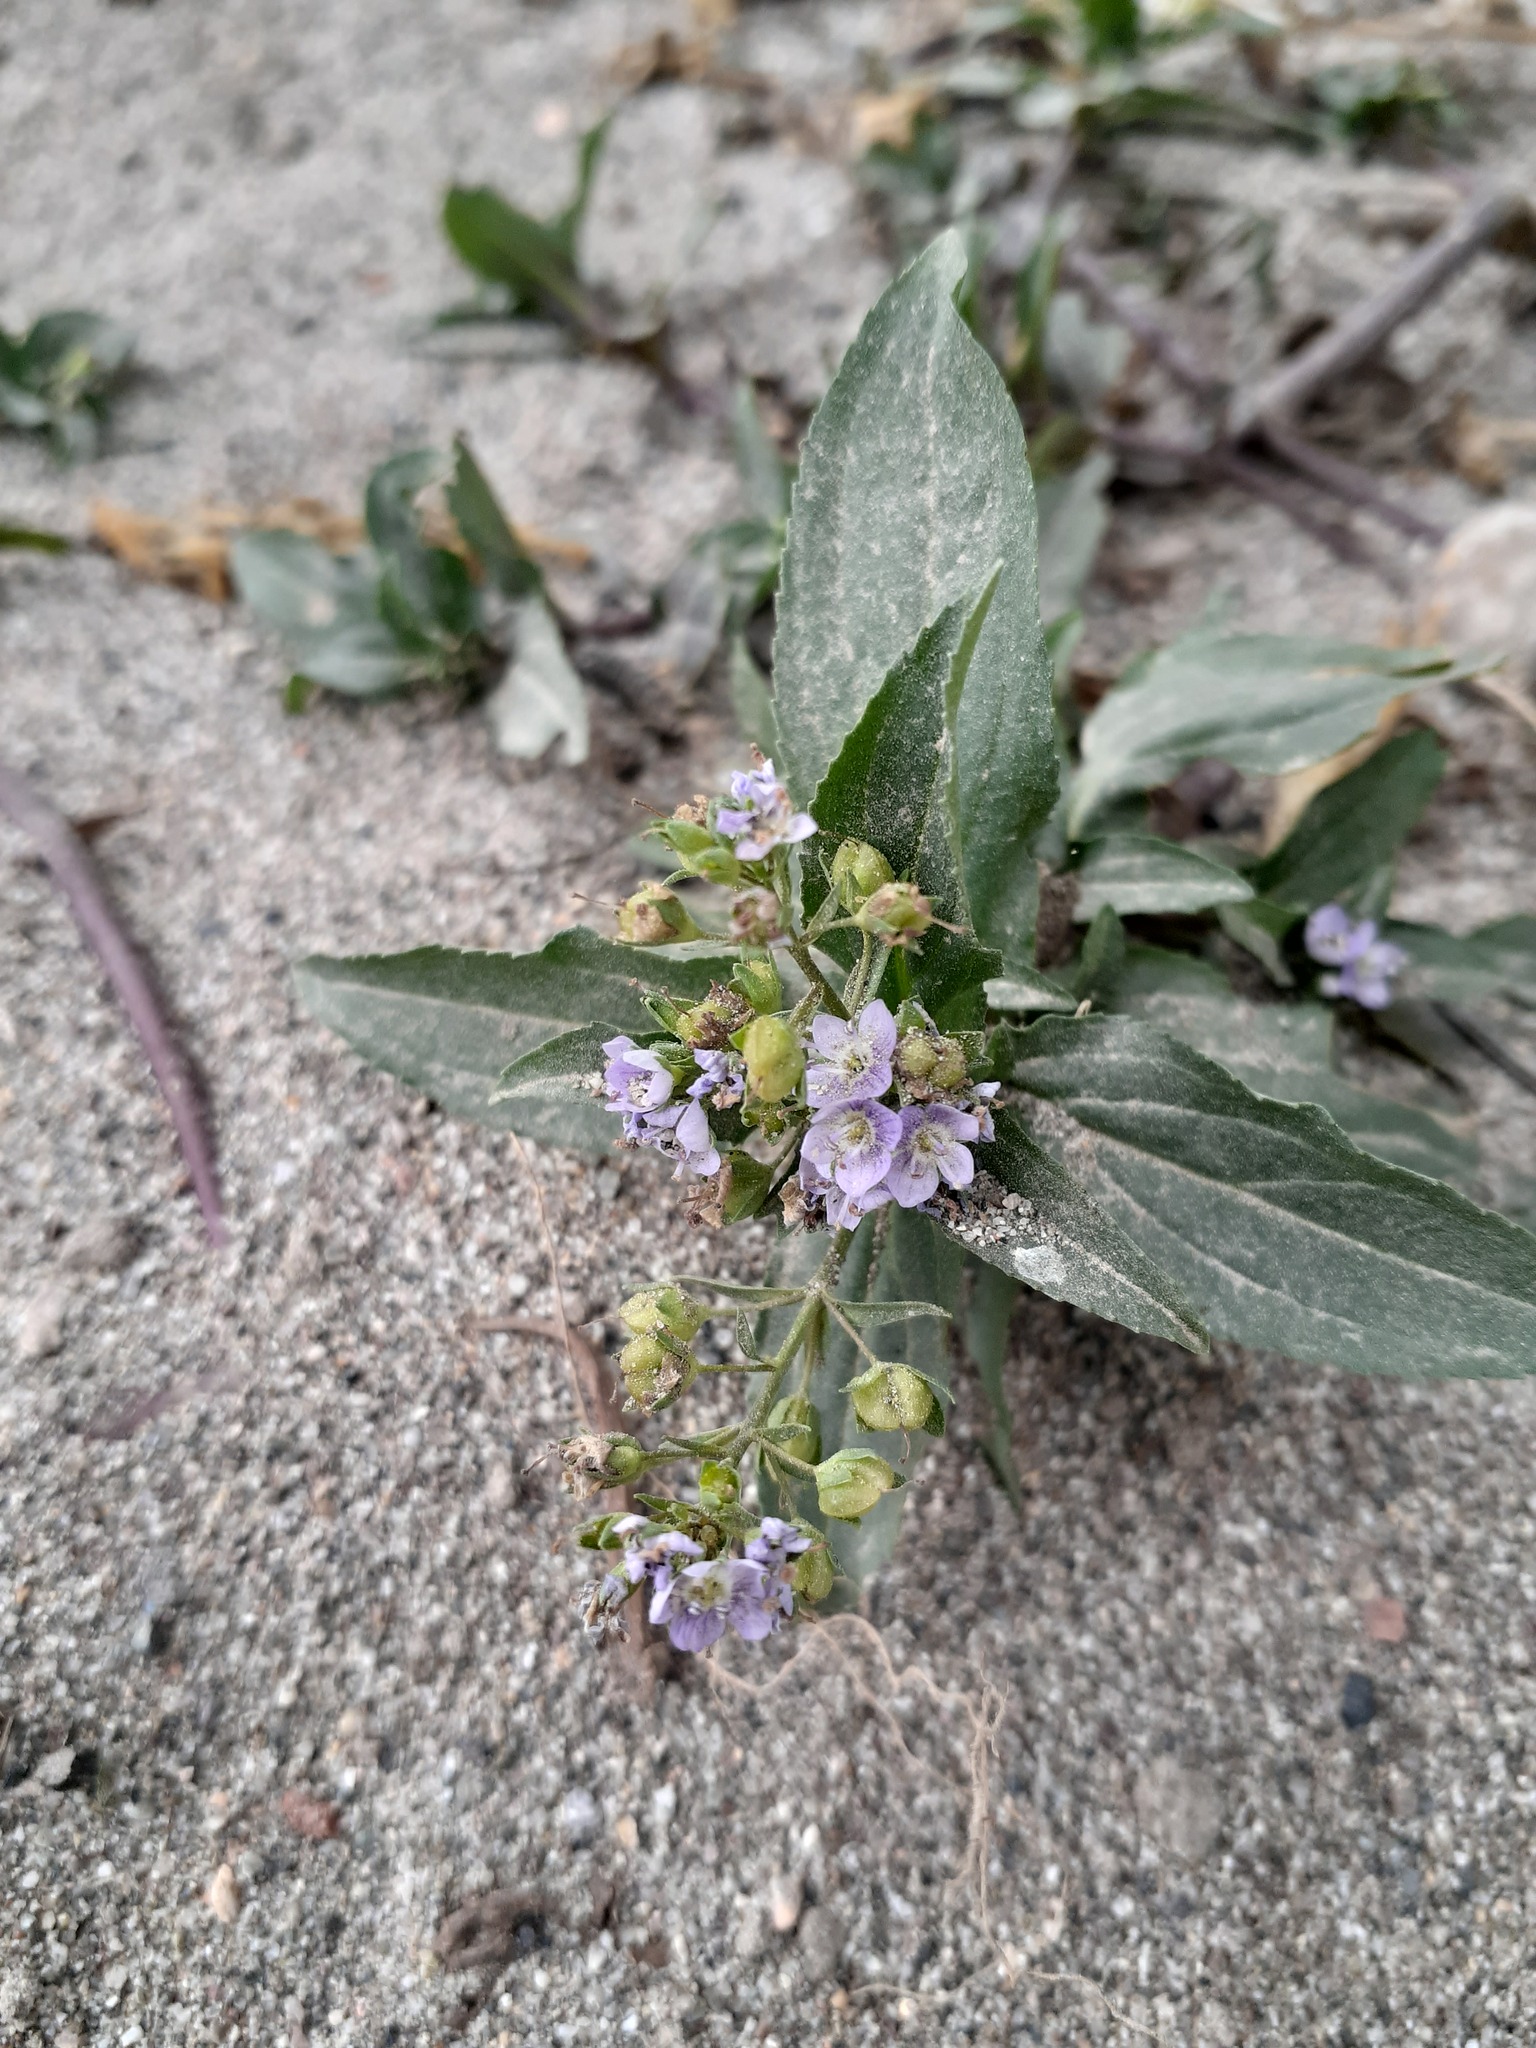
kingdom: Plantae
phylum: Tracheophyta
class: Magnoliopsida
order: Lamiales
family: Plantaginaceae
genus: Veronica
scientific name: Veronica anagallis-aquatica
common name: Water speedwell
